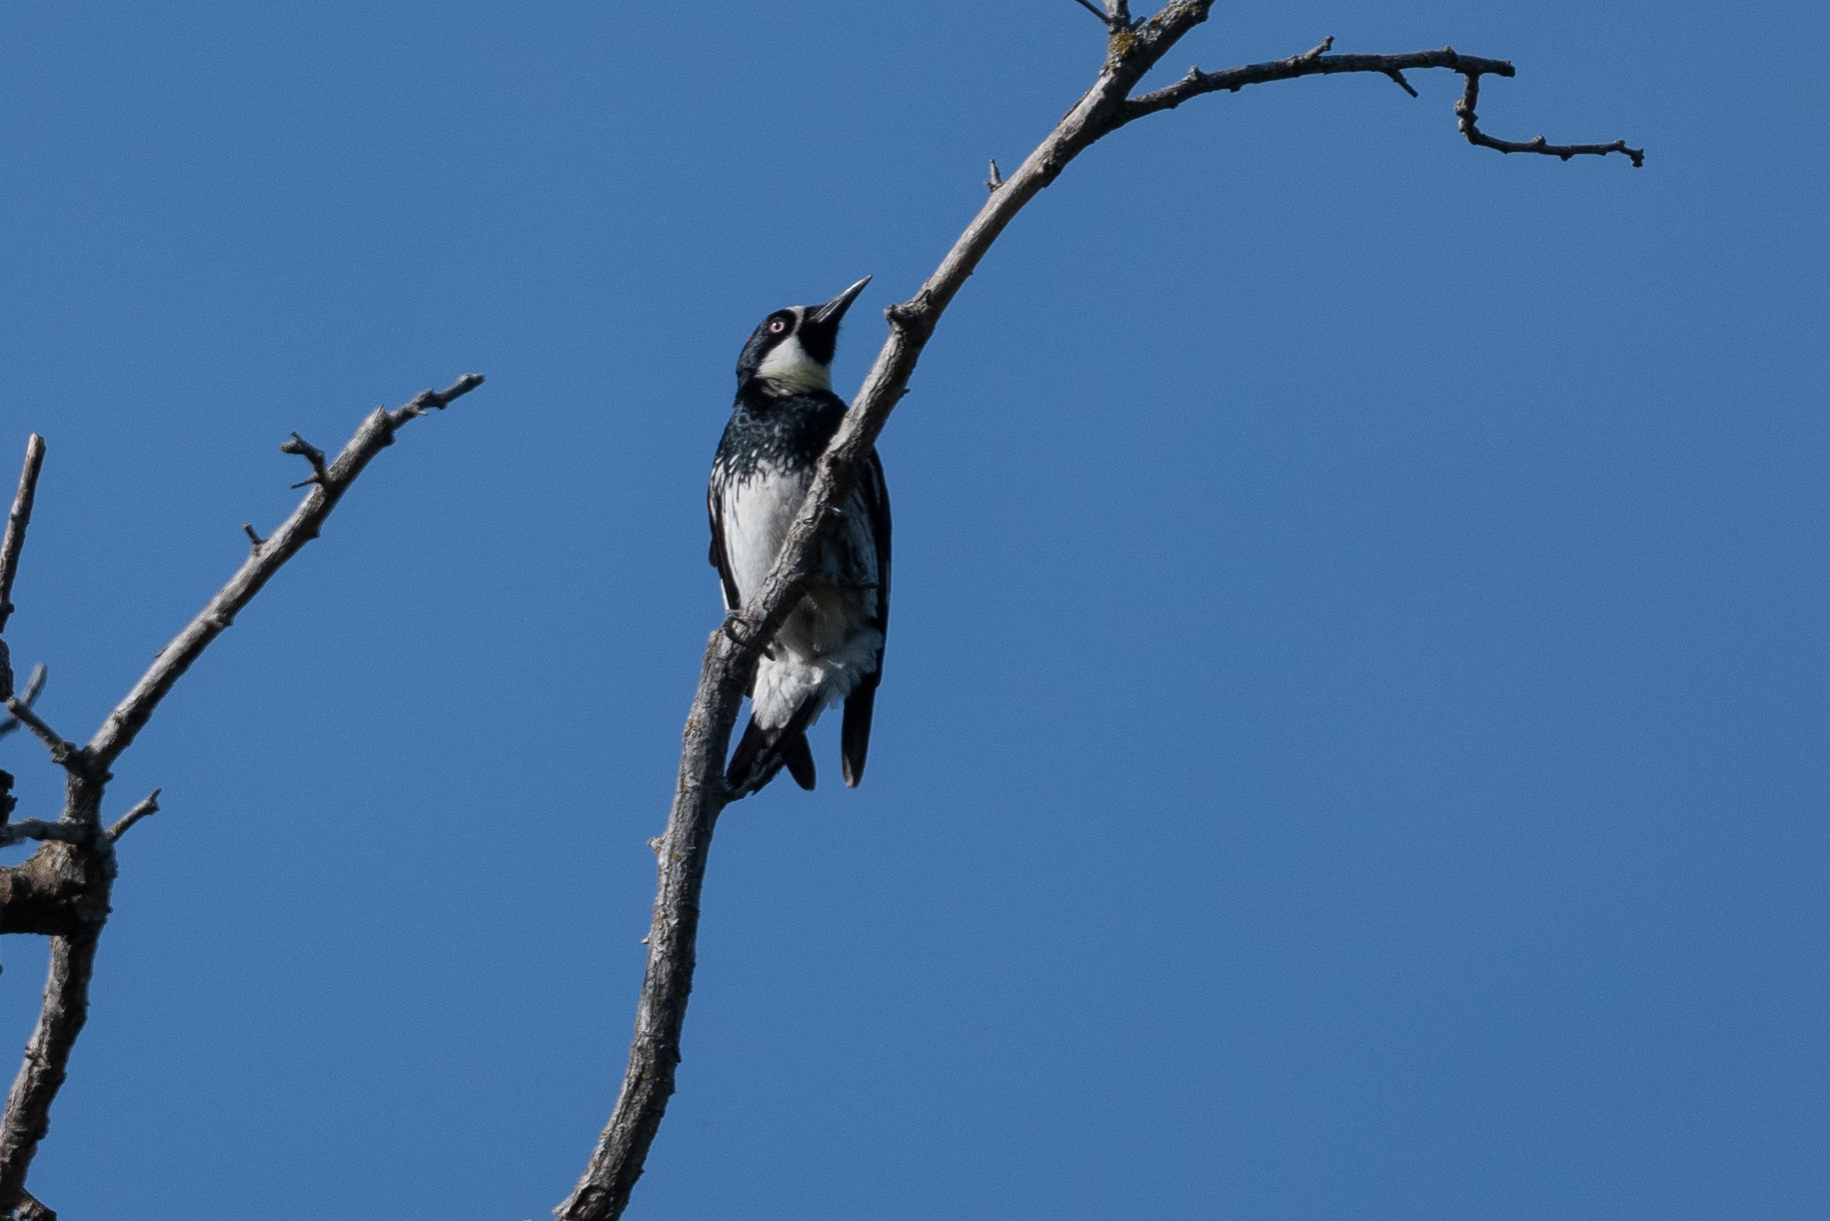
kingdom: Animalia
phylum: Chordata
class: Aves
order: Piciformes
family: Picidae
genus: Melanerpes
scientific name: Melanerpes formicivorus
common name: Acorn woodpecker
